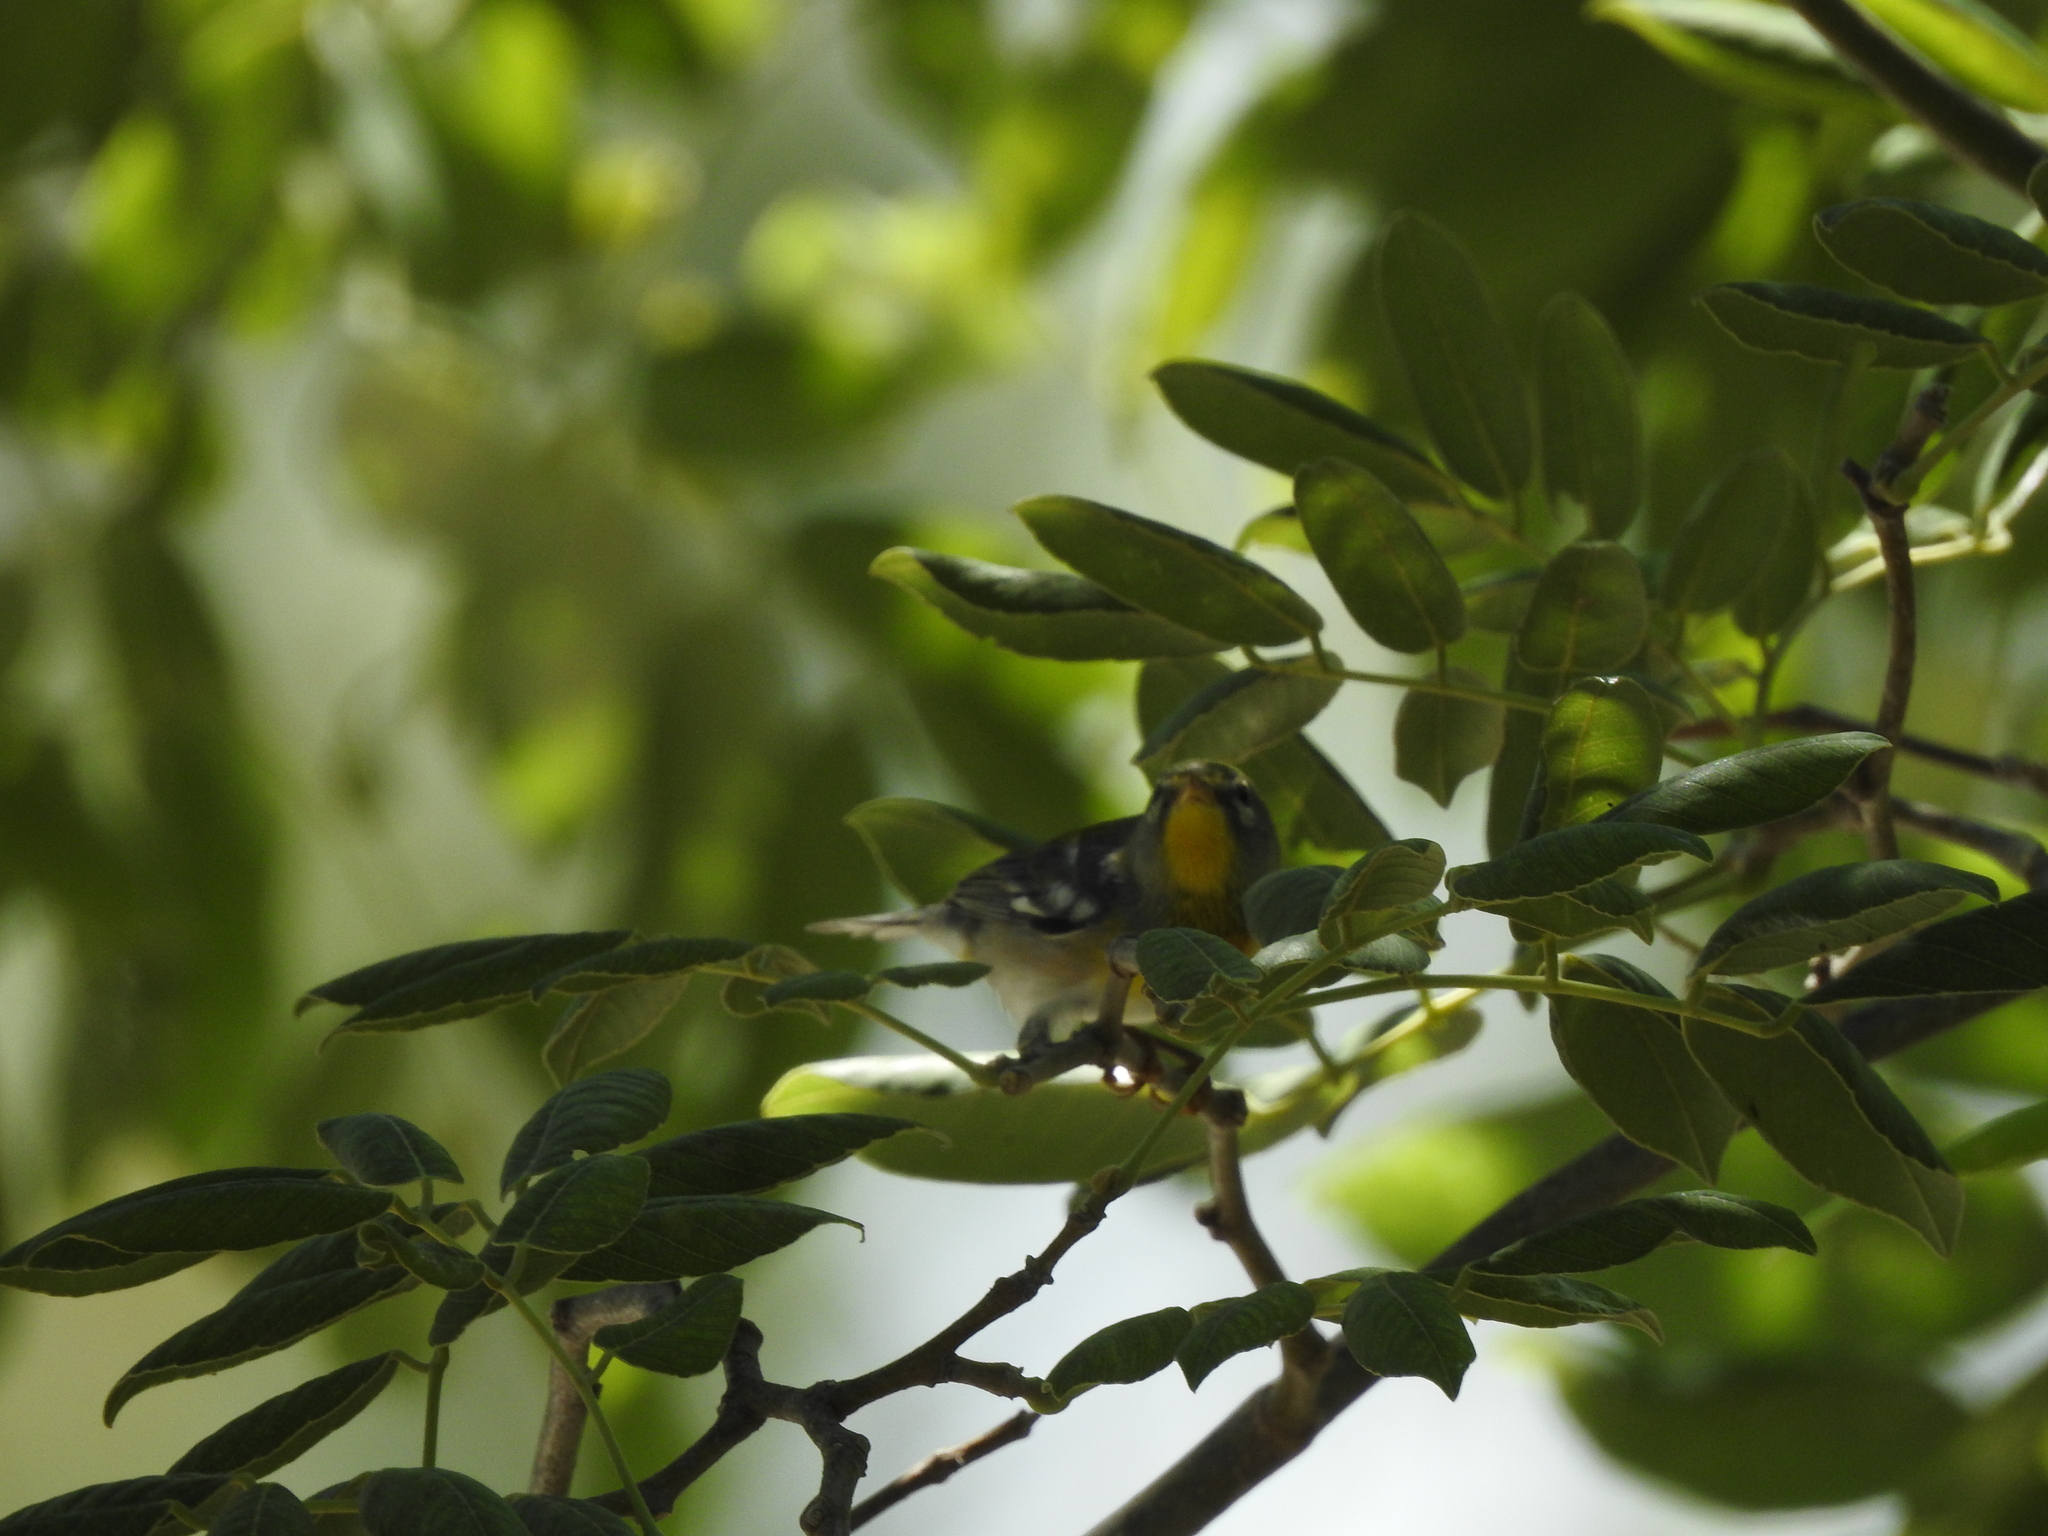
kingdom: Animalia
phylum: Chordata
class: Aves
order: Passeriformes
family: Parulidae
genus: Setophaga
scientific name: Setophaga americana
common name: Northern parula
